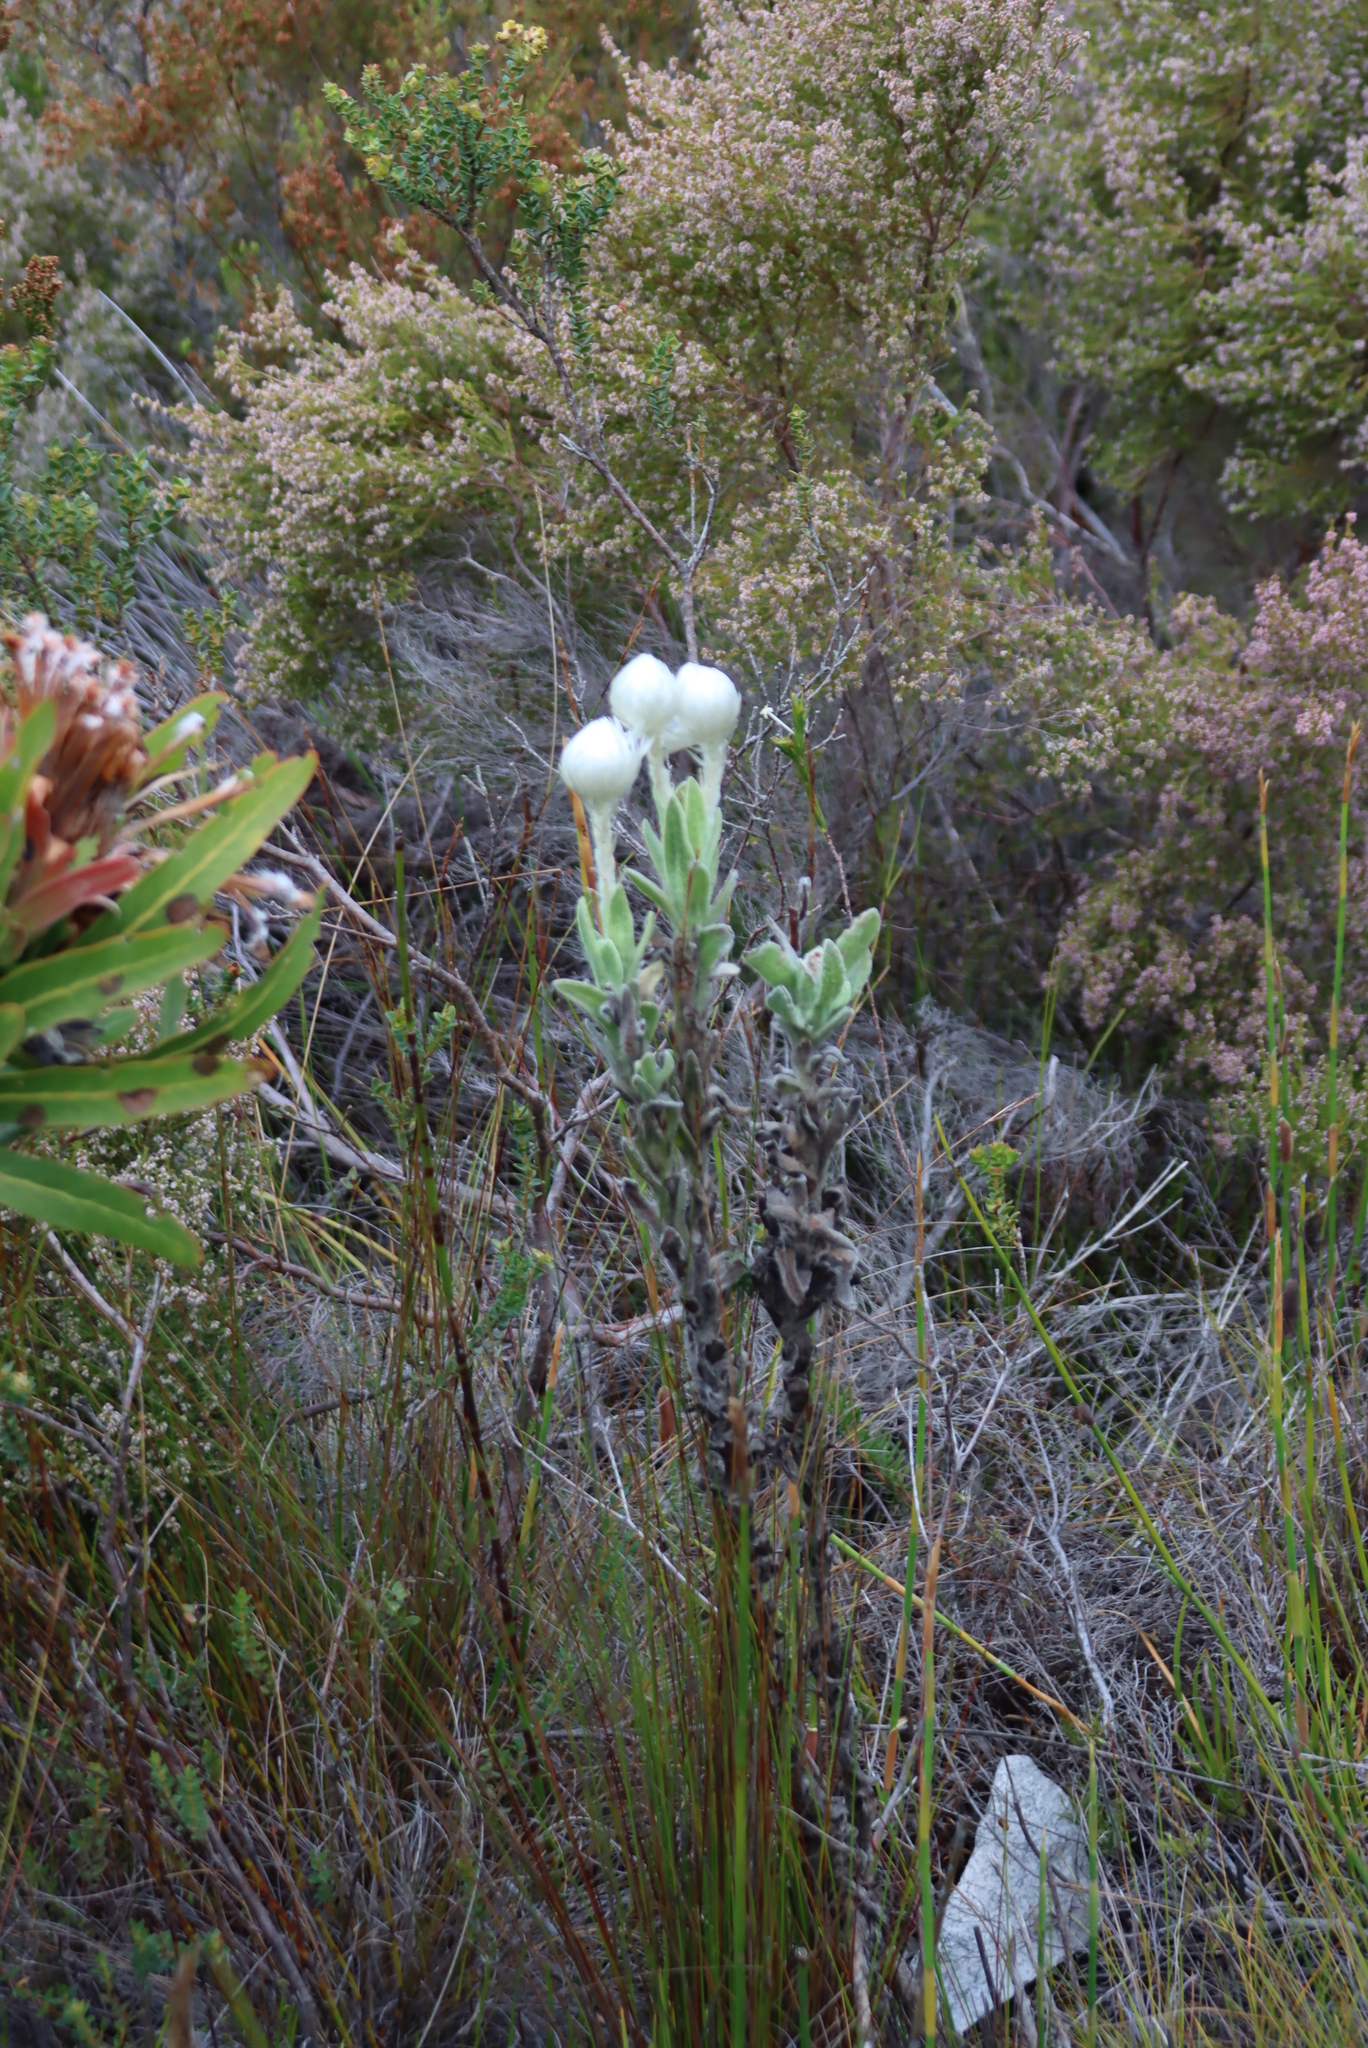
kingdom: Plantae
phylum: Tracheophyta
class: Magnoliopsida
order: Asterales
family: Asteraceae
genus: Syncarpha
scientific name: Syncarpha vestita
